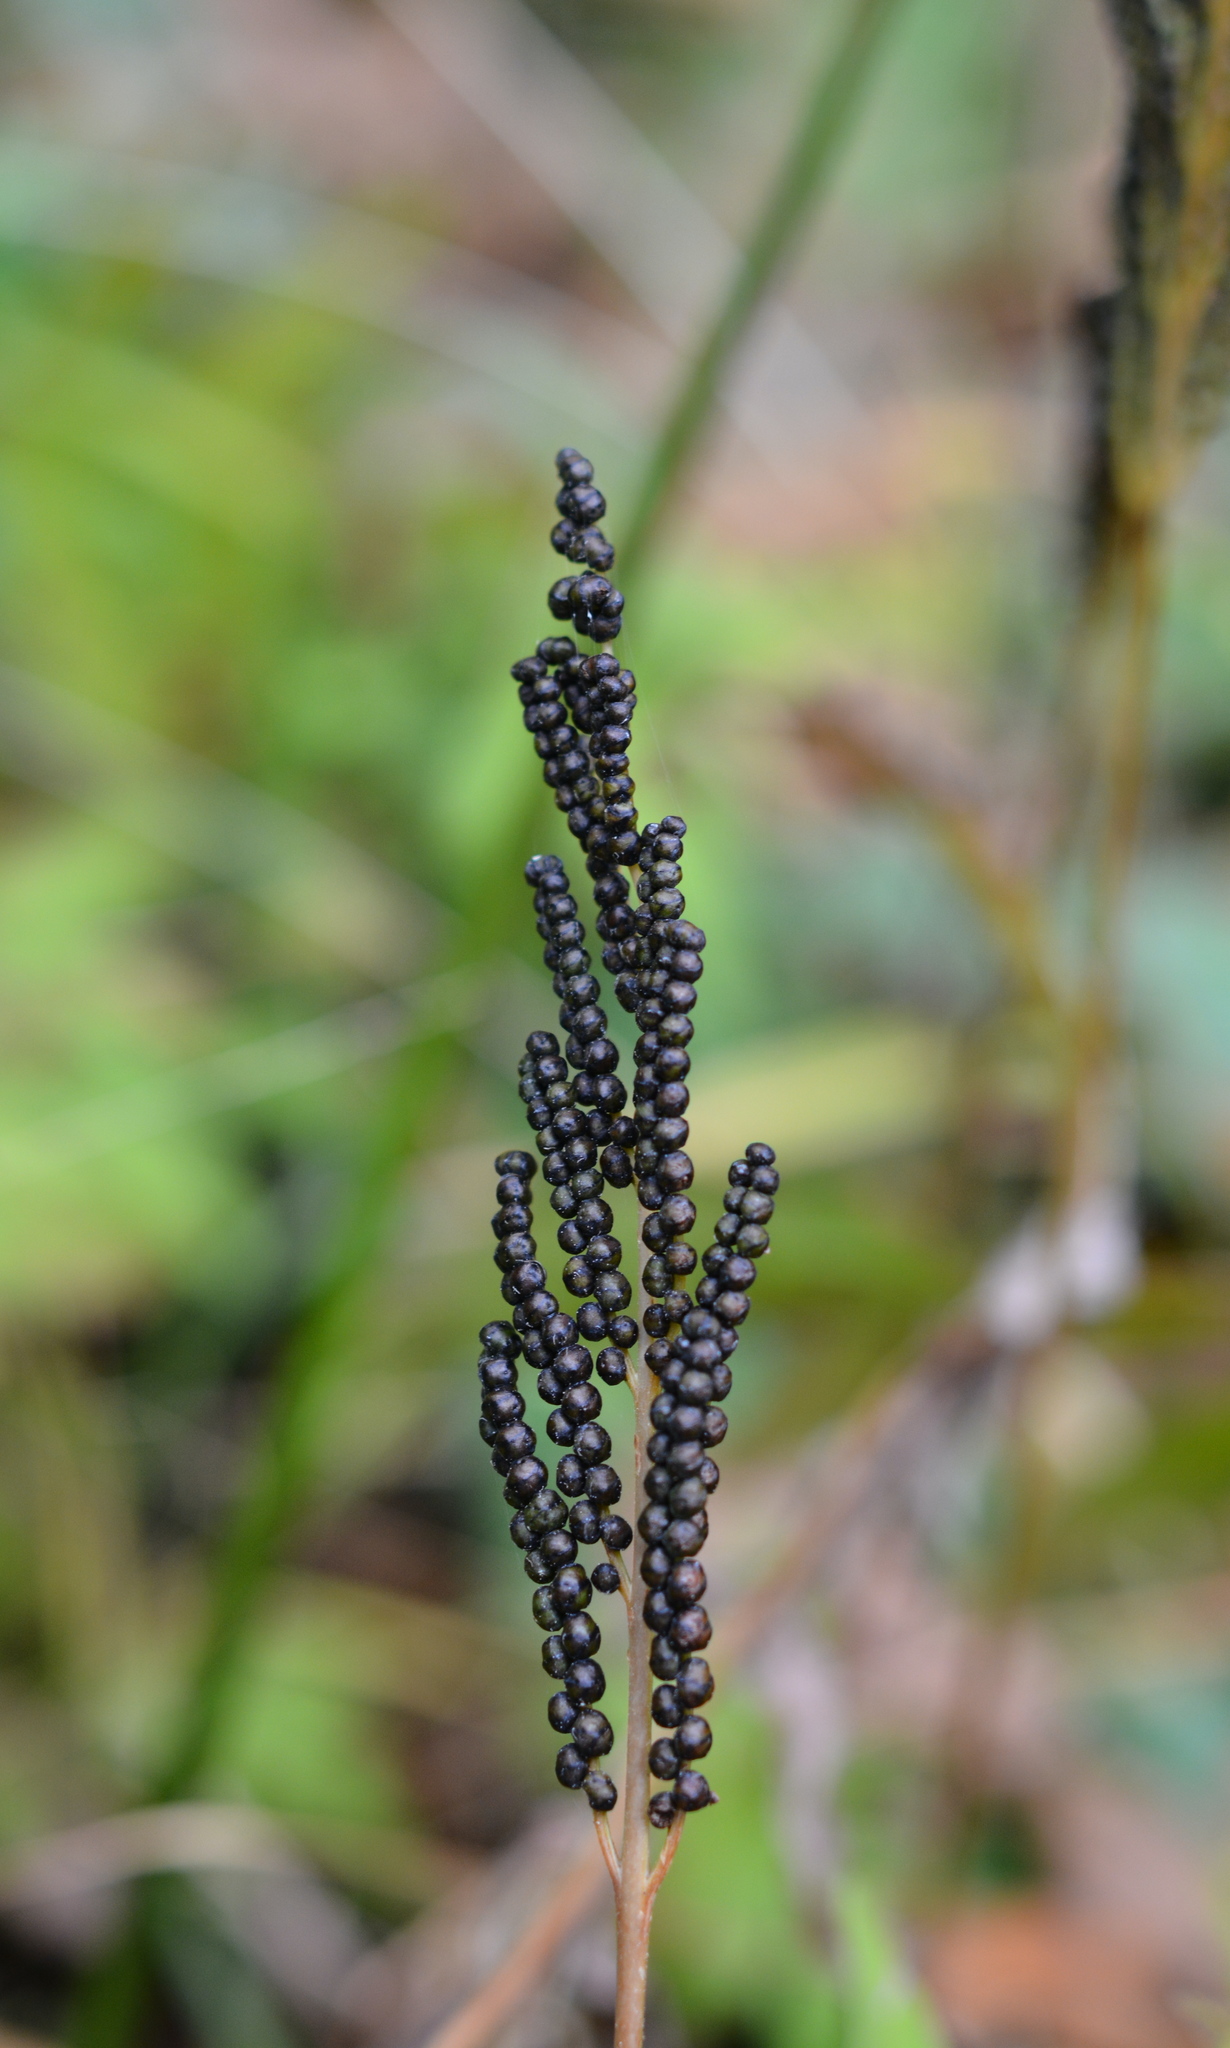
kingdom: Plantae
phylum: Tracheophyta
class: Polypodiopsida
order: Polypodiales
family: Onocleaceae
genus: Onoclea
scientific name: Onoclea sensibilis
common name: Sensitive fern
